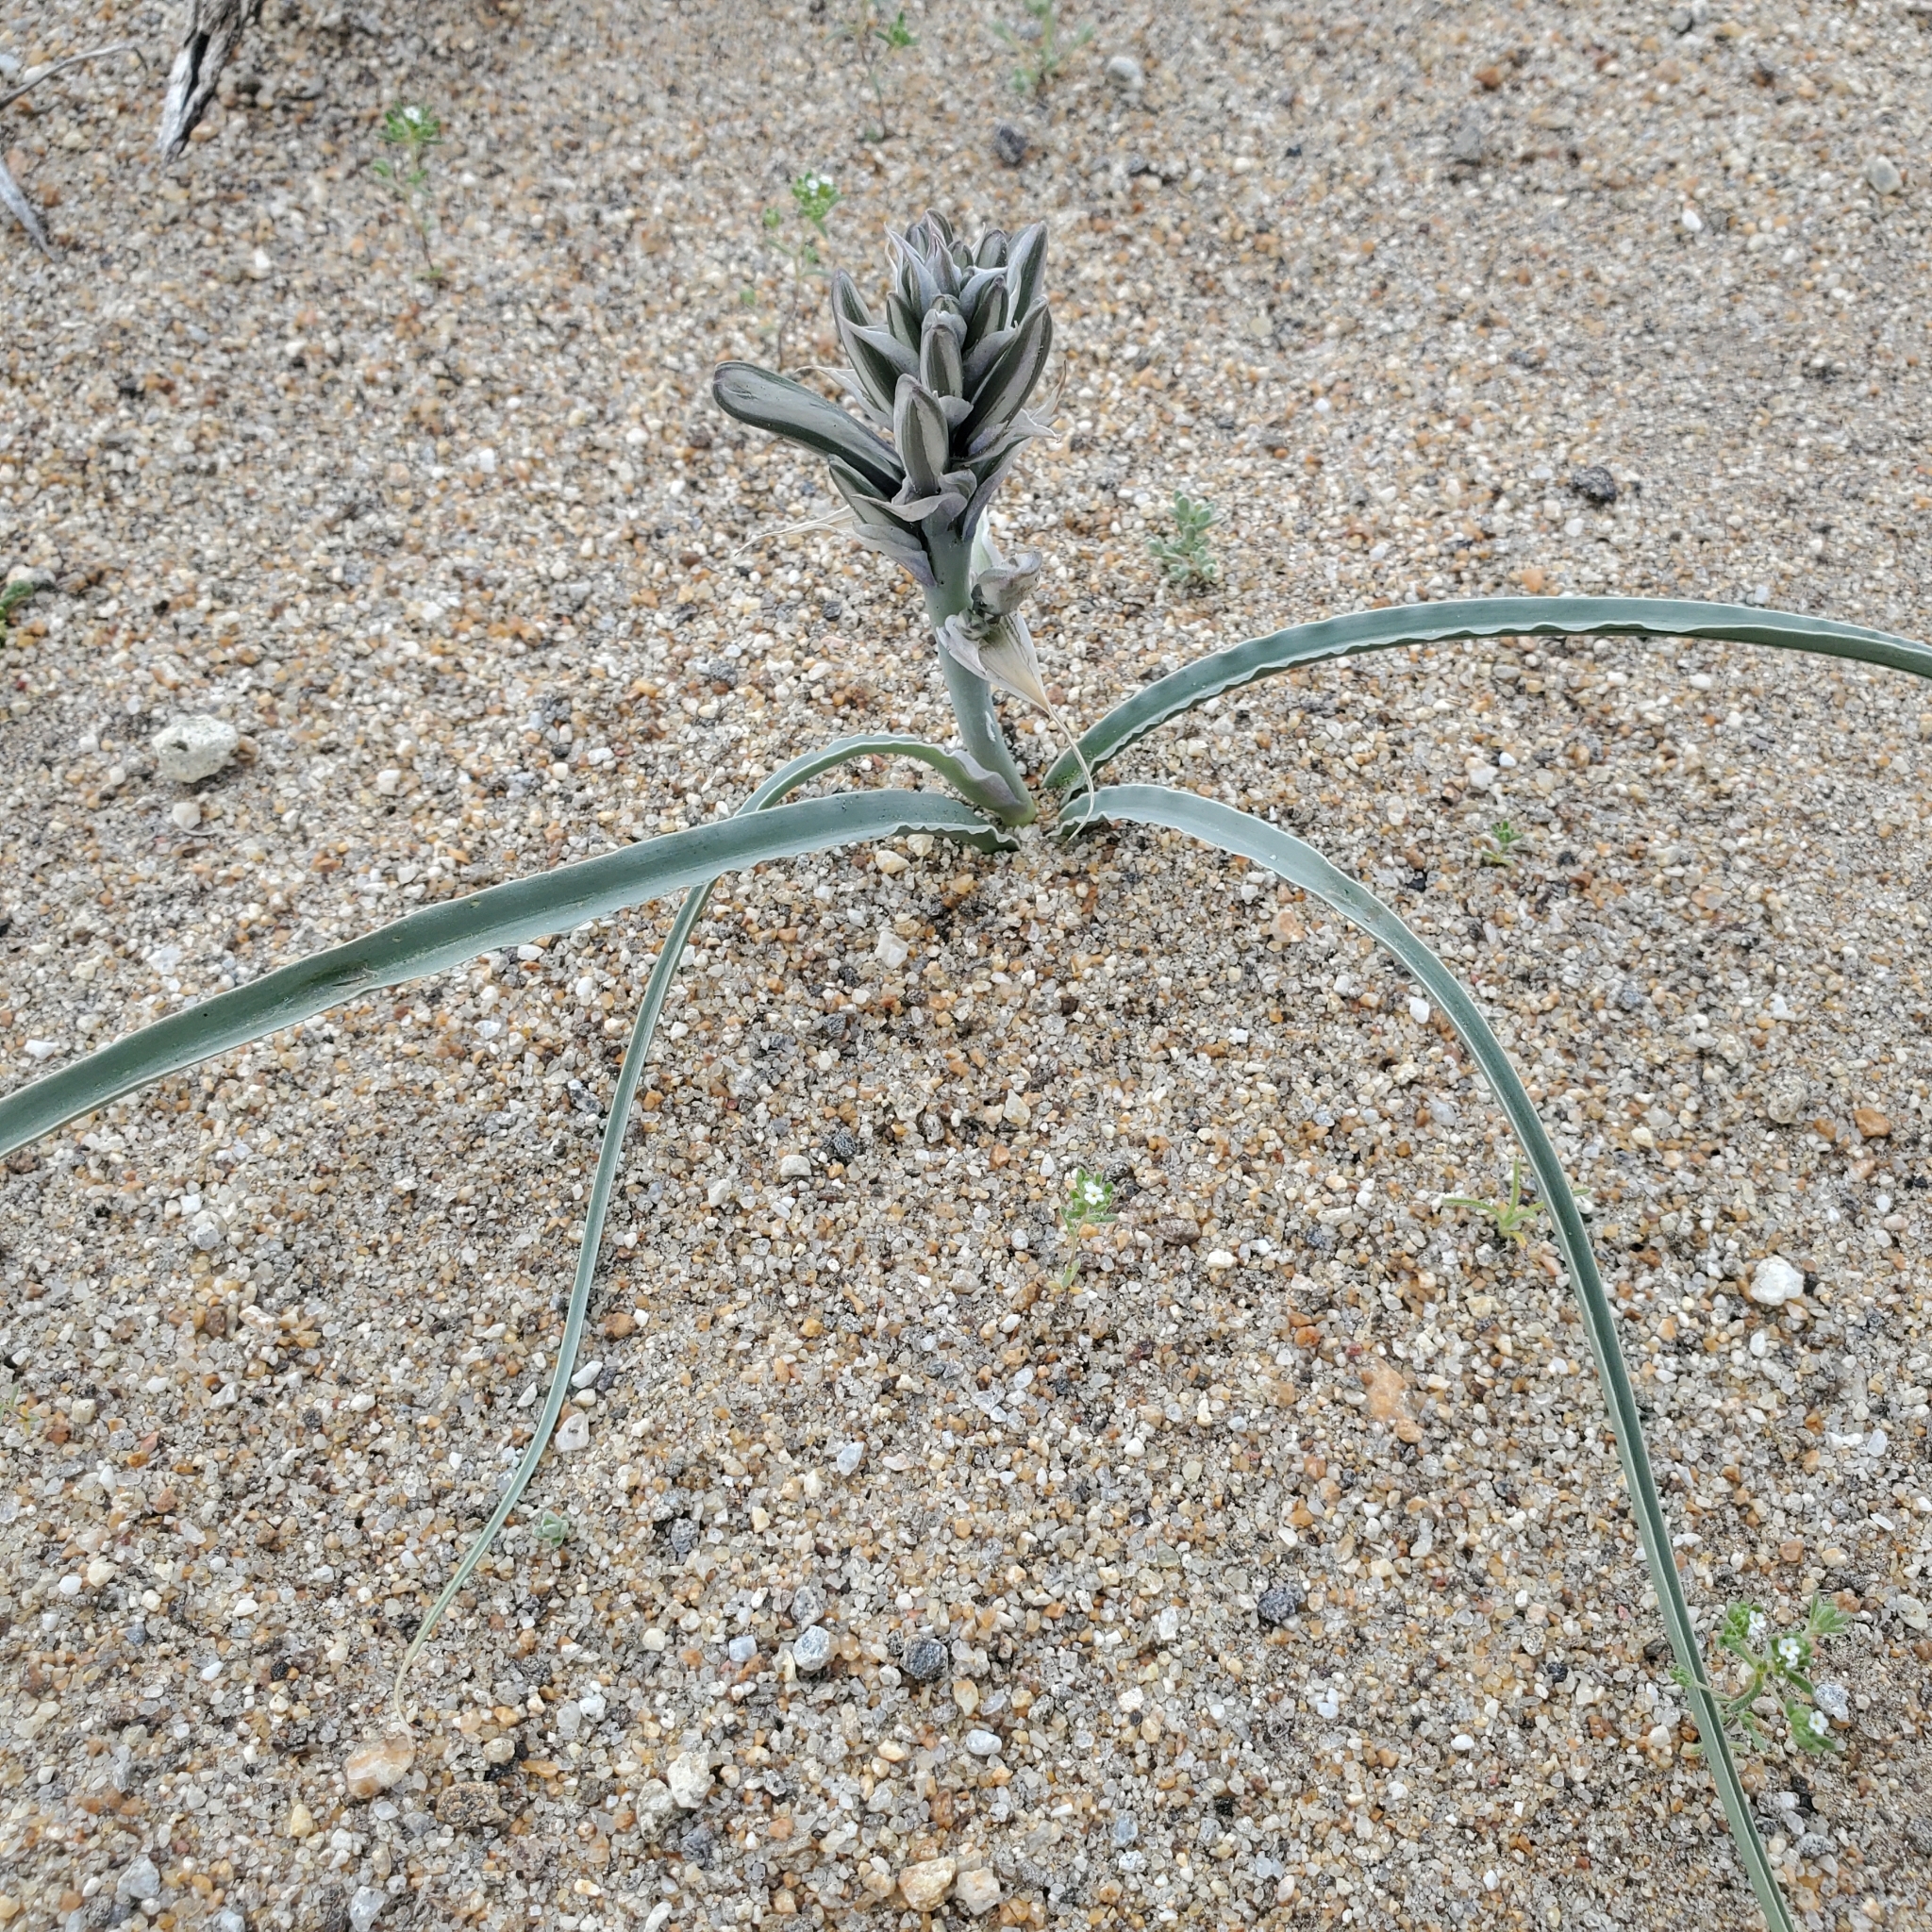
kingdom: Plantae
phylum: Tracheophyta
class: Liliopsida
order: Asparagales
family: Asparagaceae
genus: Hesperocallis
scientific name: Hesperocallis undulata
